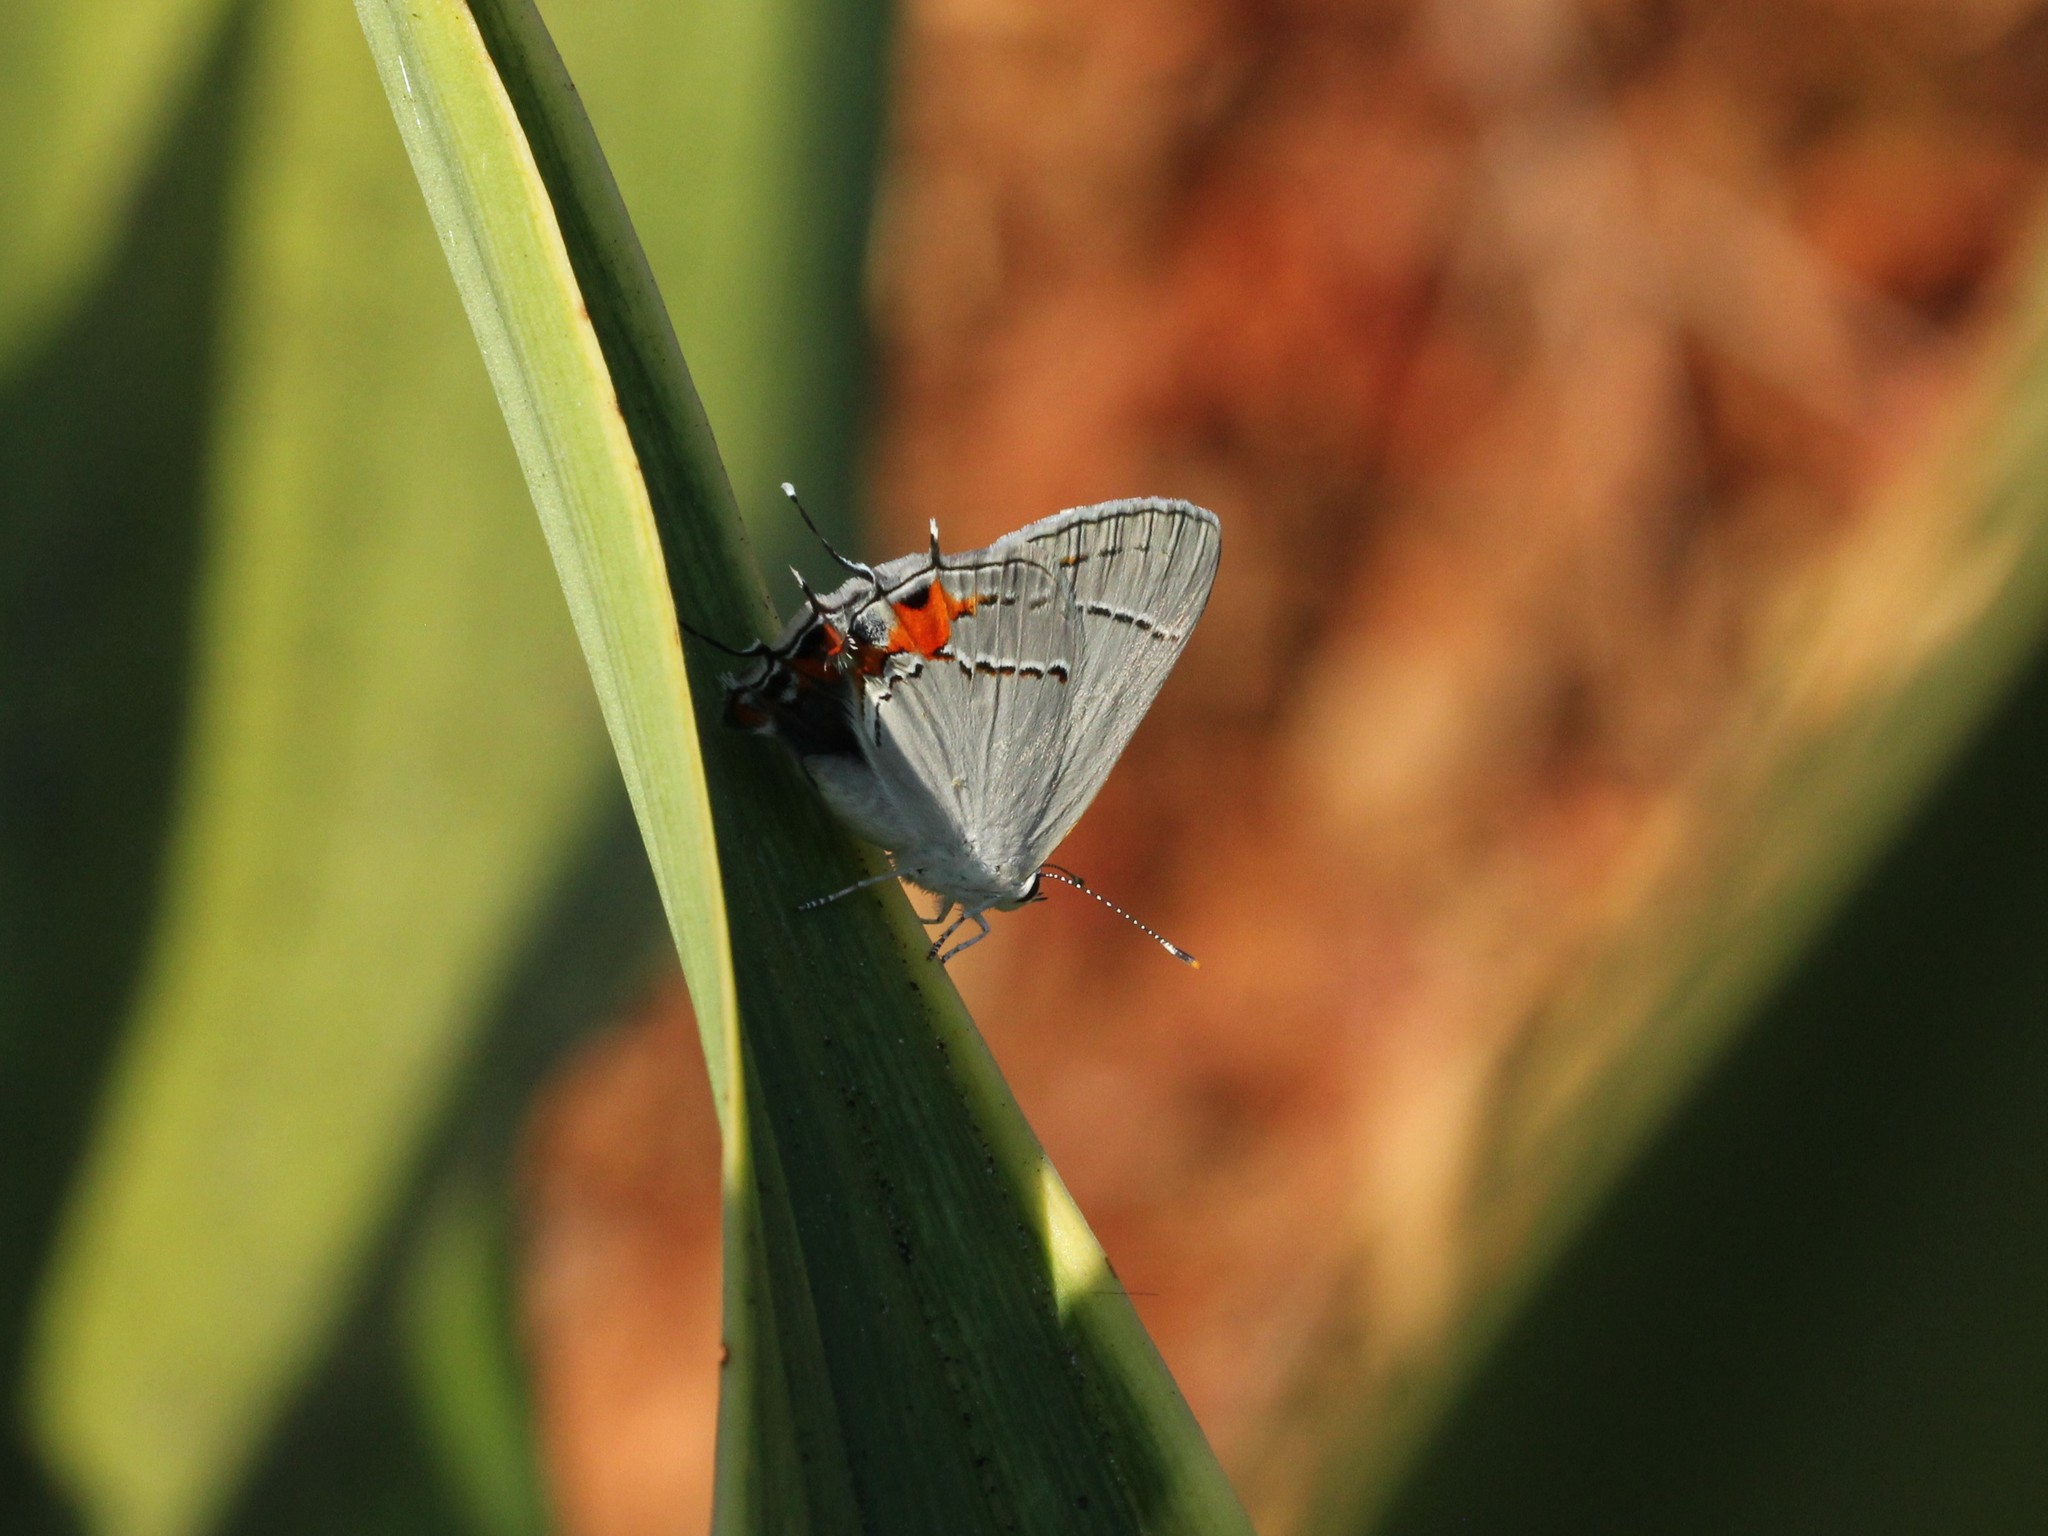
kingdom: Animalia
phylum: Arthropoda
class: Insecta
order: Lepidoptera
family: Lycaenidae
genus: Strymon
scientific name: Strymon melinus
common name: Gray hairstreak
